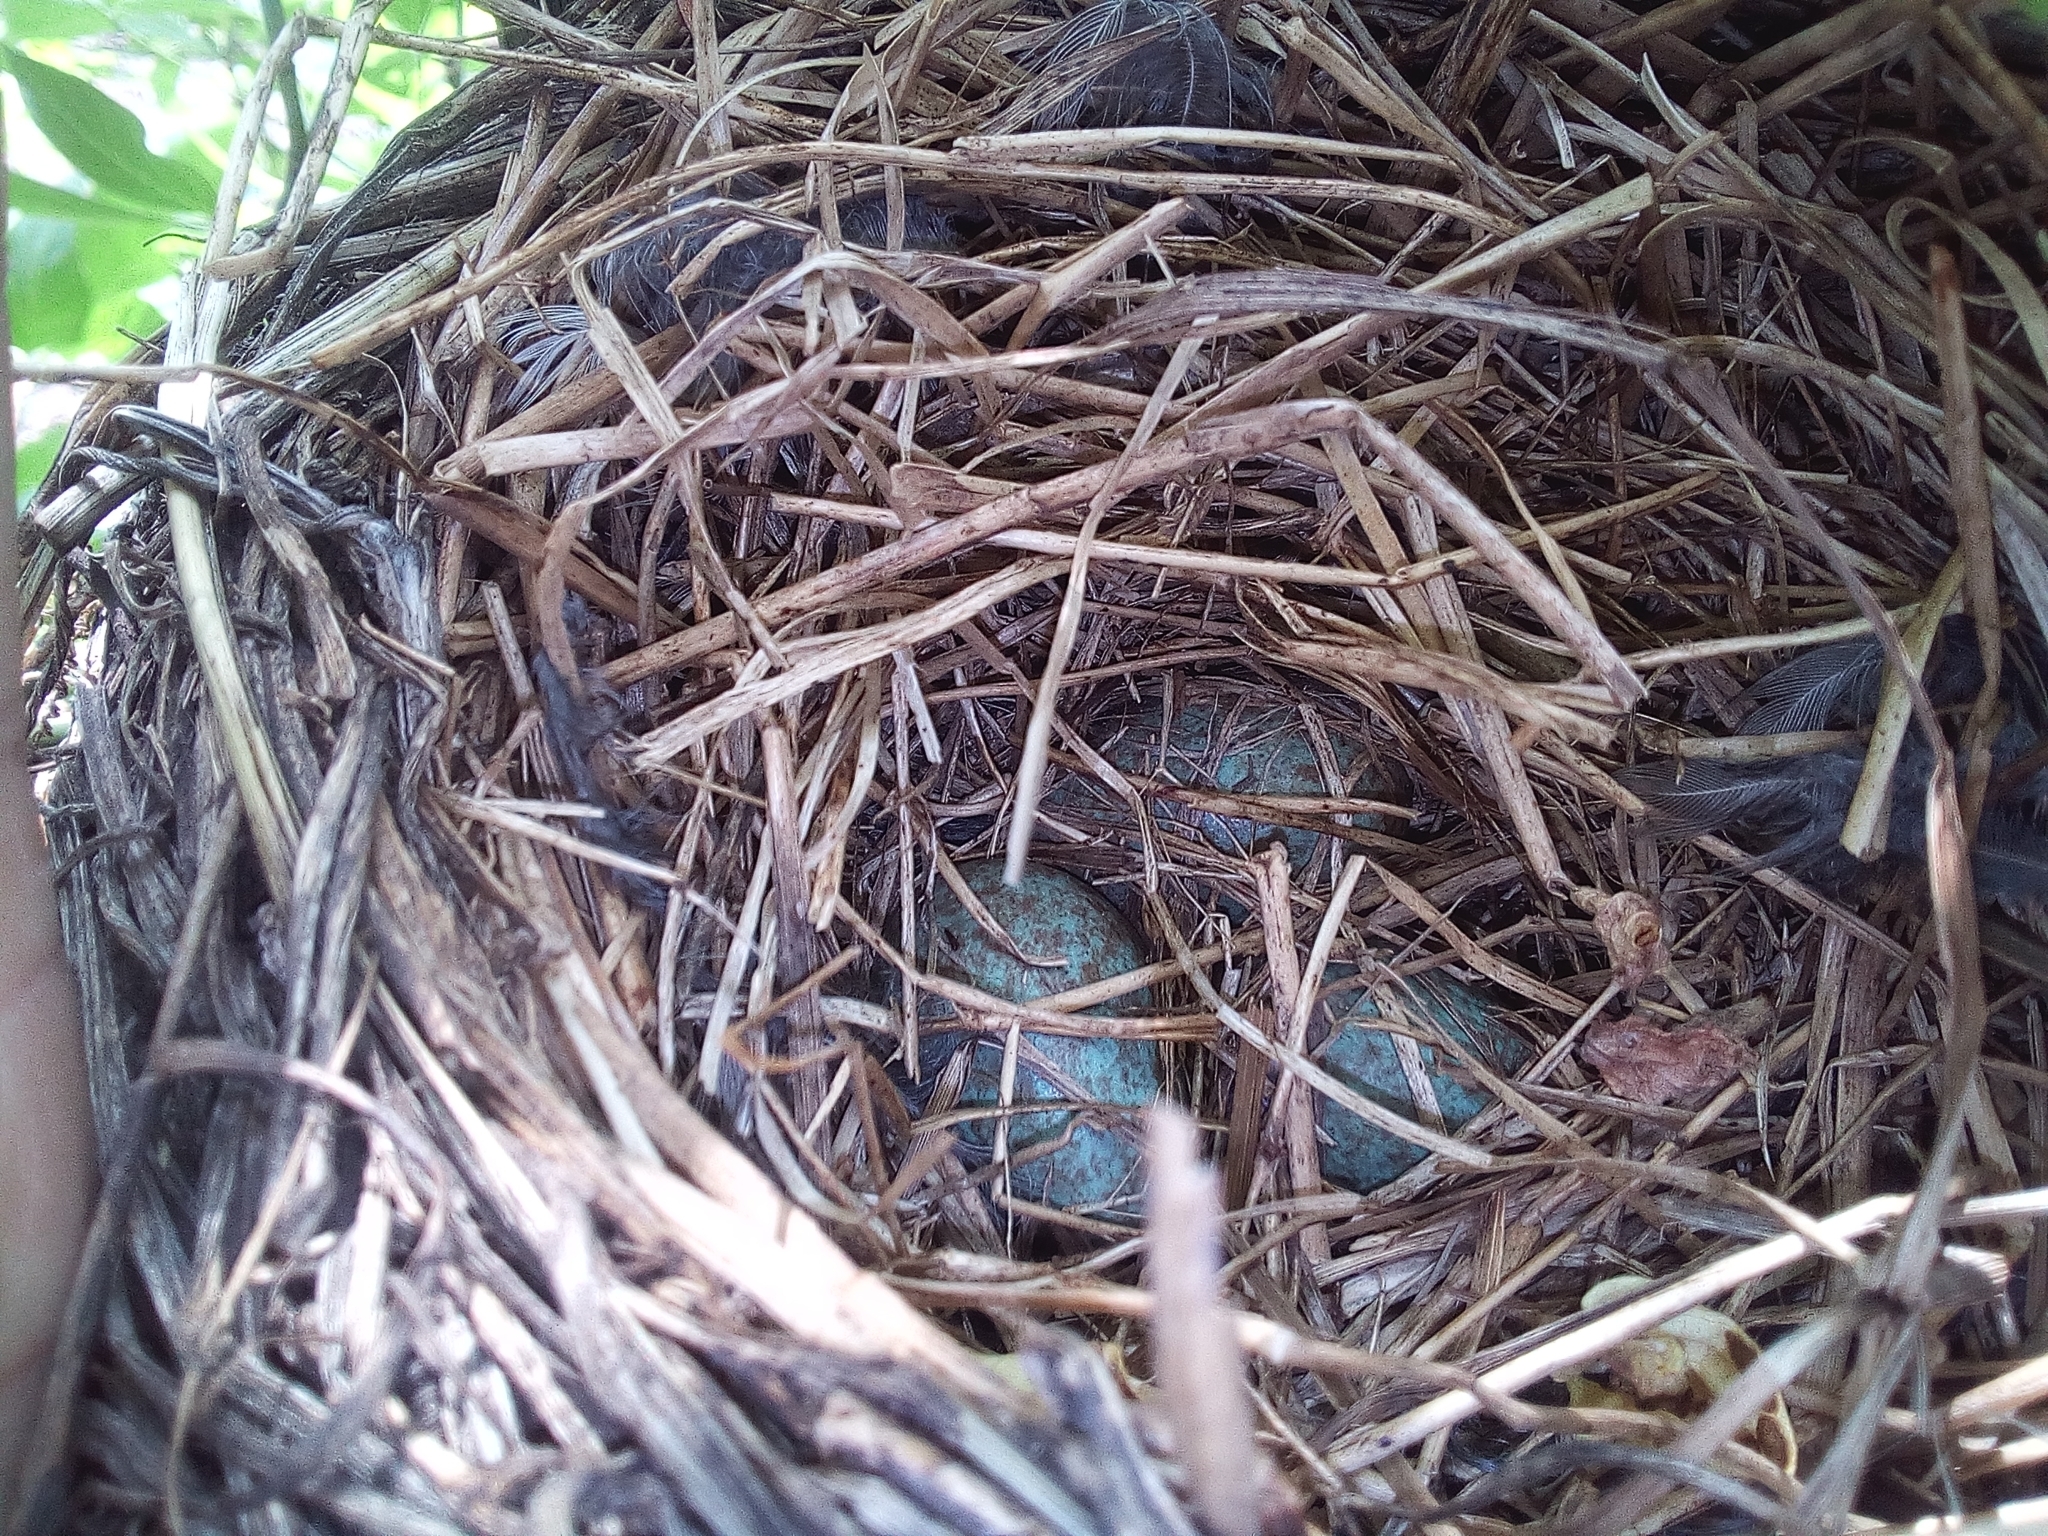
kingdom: Animalia
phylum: Chordata
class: Aves
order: Passeriformes
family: Turdidae
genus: Turdus
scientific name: Turdus pilaris
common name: Fieldfare
